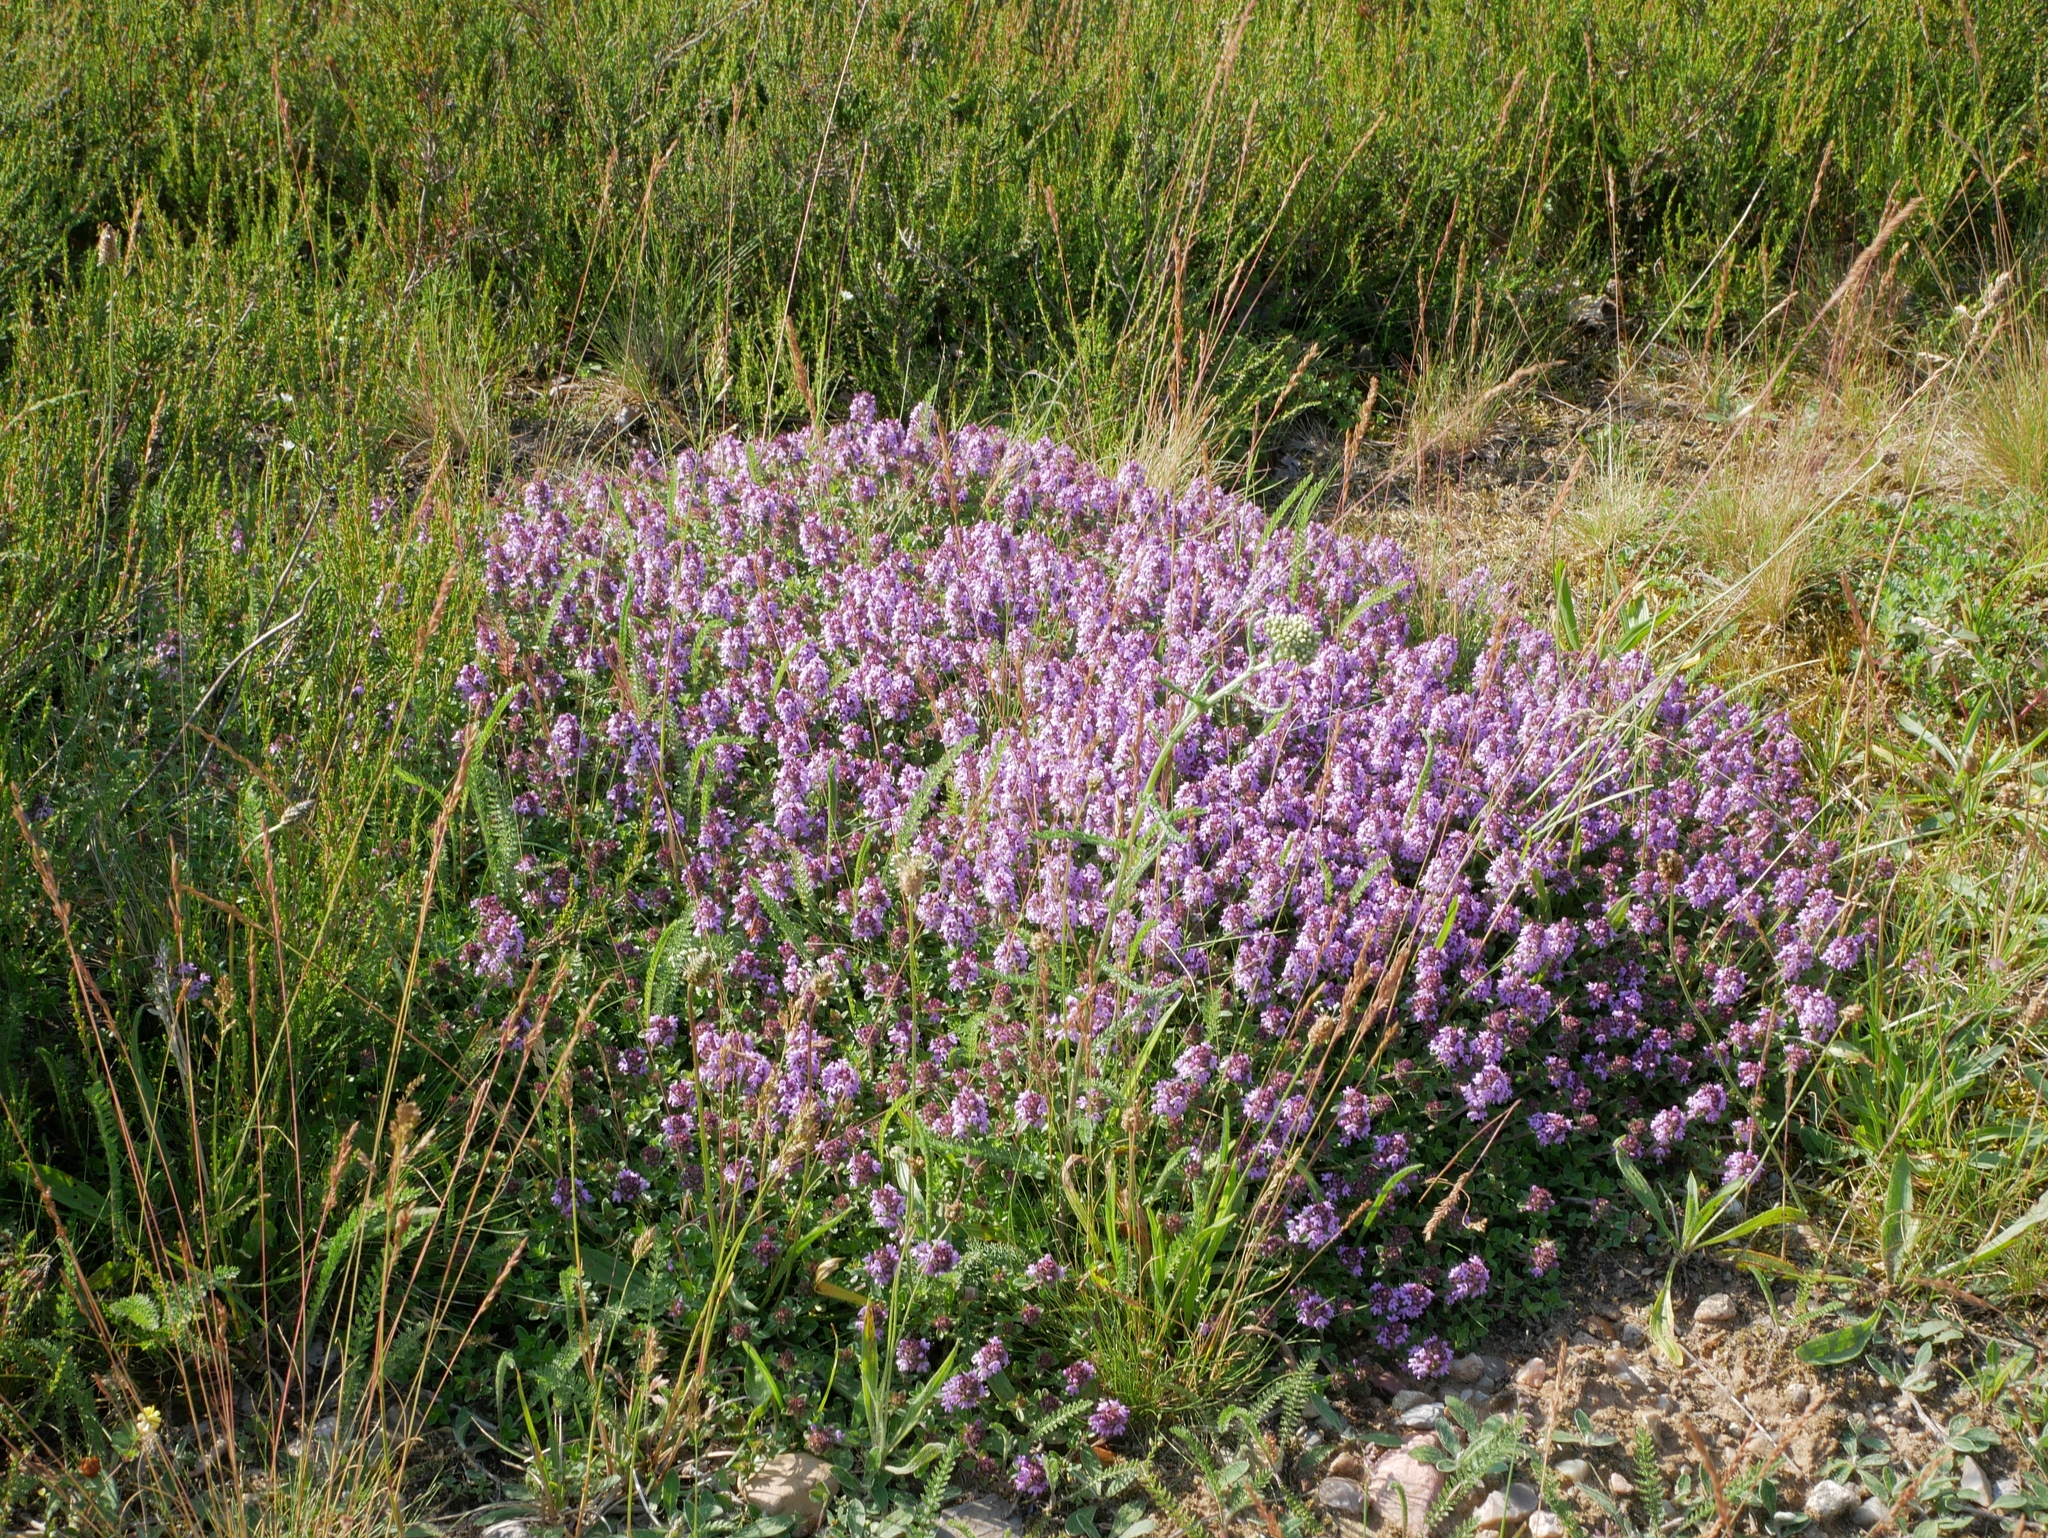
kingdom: Plantae
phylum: Tracheophyta
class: Magnoliopsida
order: Lamiales
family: Lamiaceae
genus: Thymus
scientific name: Thymus serpyllum
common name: Breckland thyme
